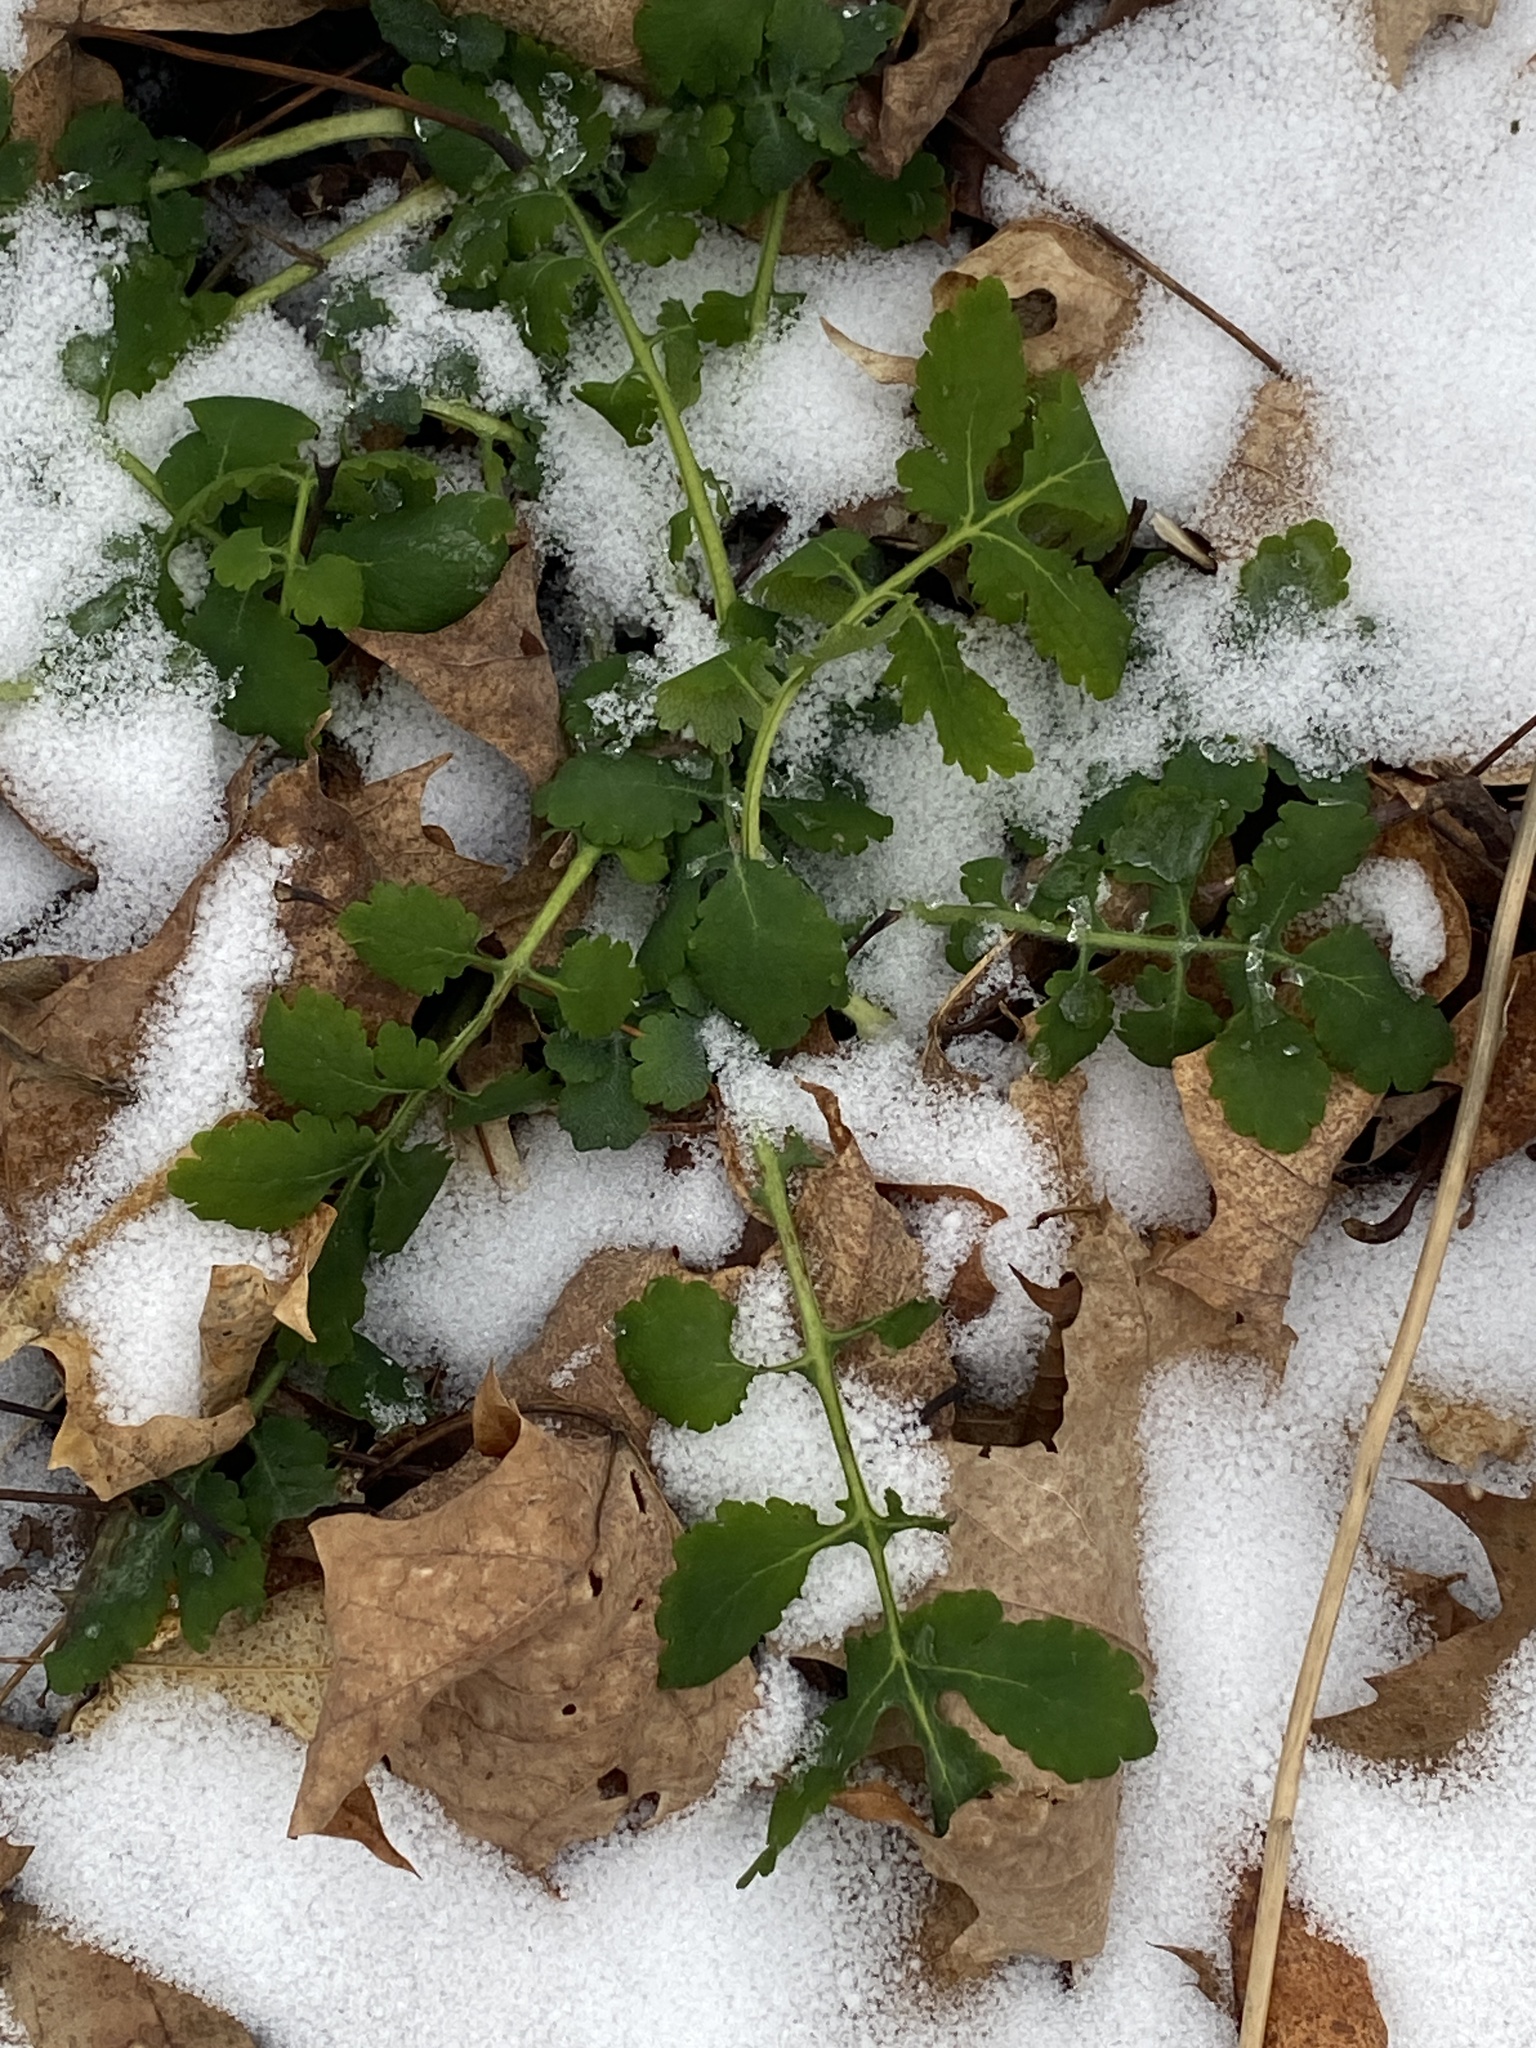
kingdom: Plantae
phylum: Tracheophyta
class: Magnoliopsida
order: Ranunculales
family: Papaveraceae
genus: Chelidonium
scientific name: Chelidonium majus
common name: Greater celandine
